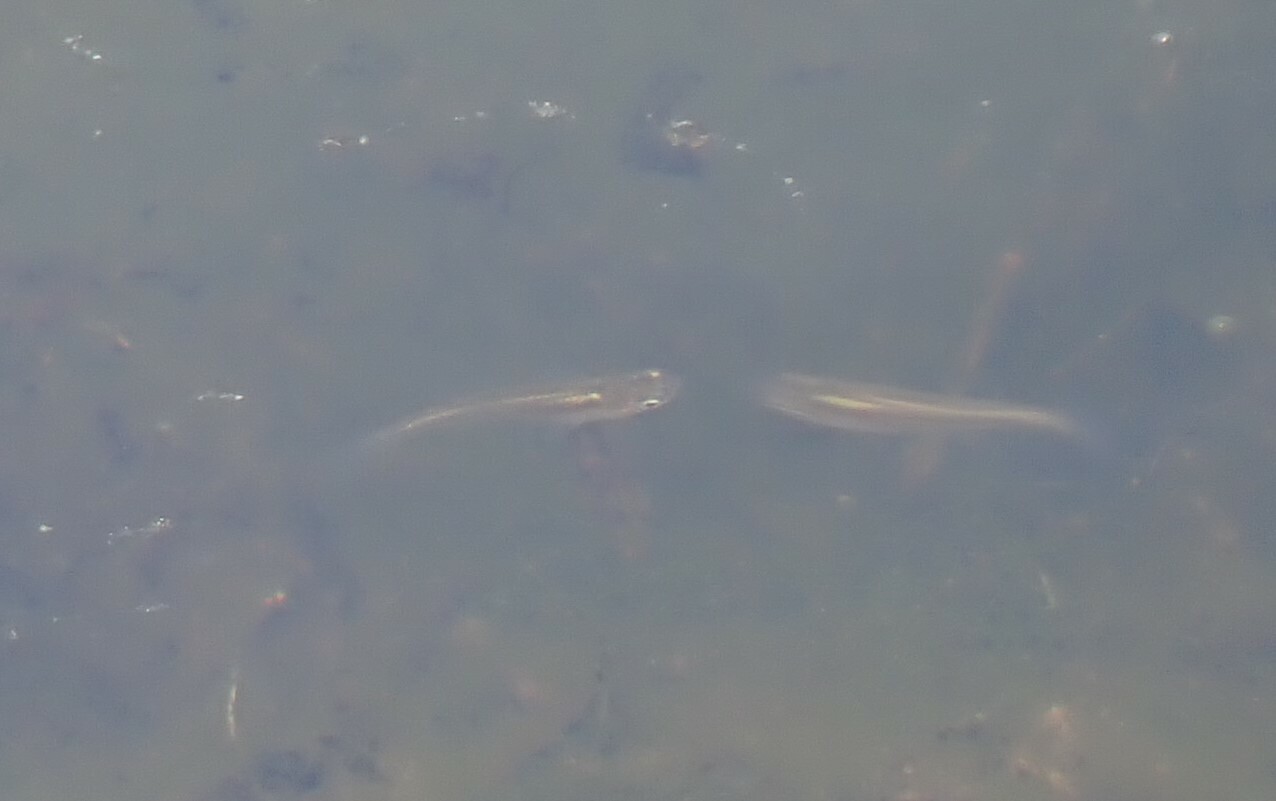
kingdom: Animalia
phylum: Chordata
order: Cyprinodontiformes
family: Poeciliidae
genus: Gambusia
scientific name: Gambusia holbrooki
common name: Eastern mosquitofish
